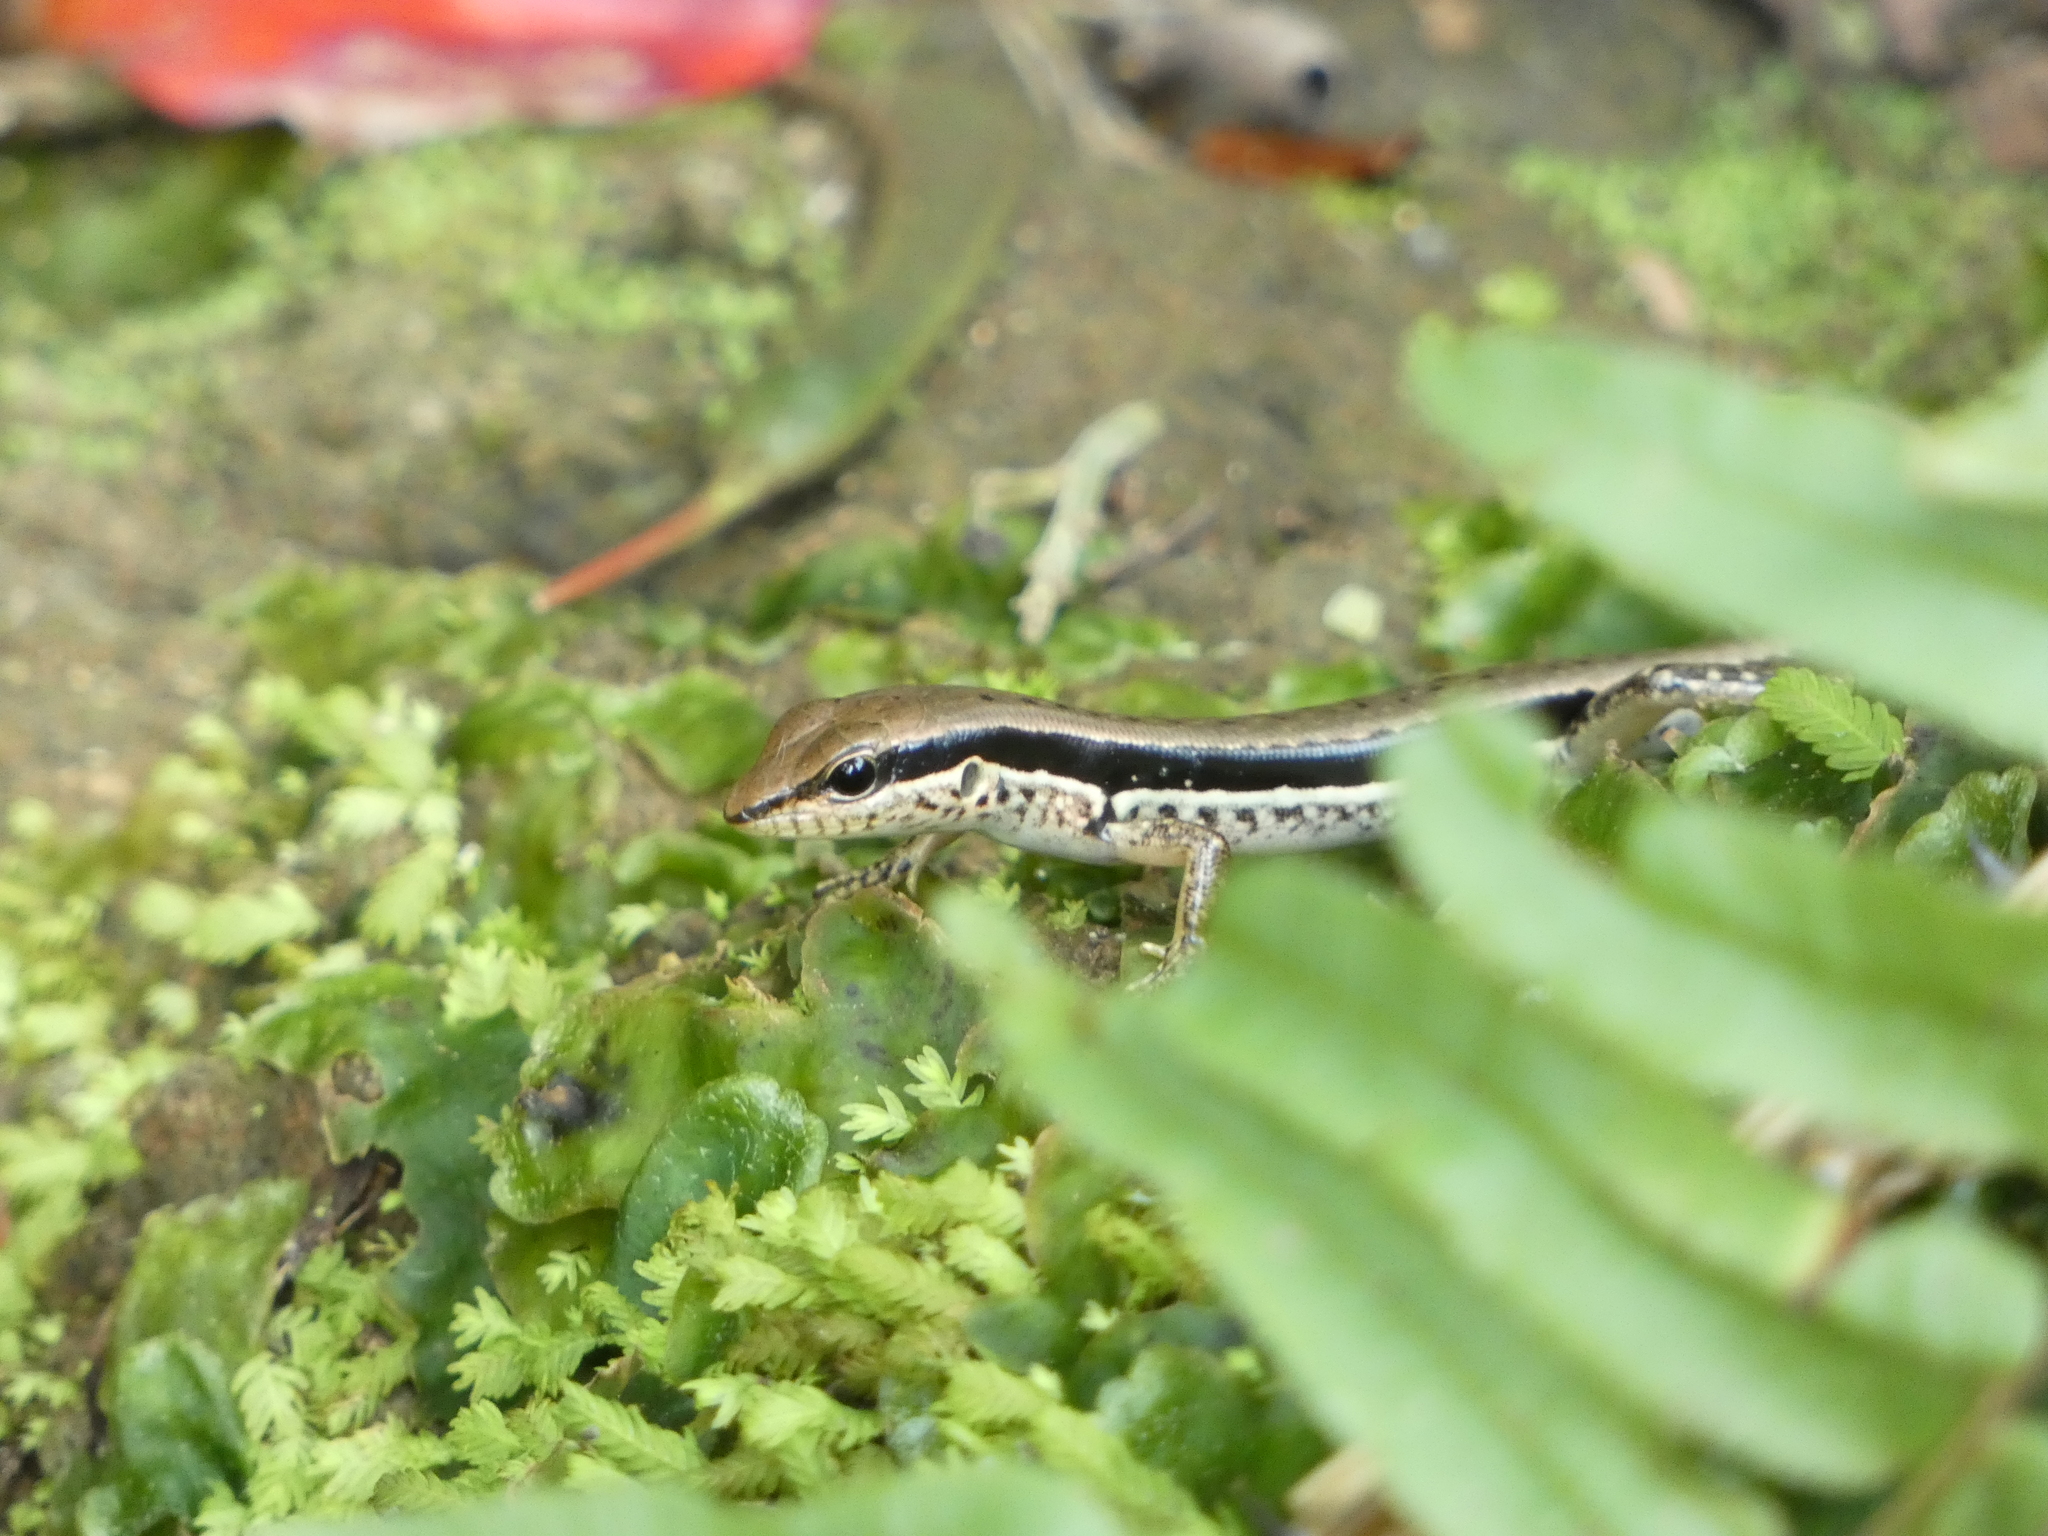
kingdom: Animalia
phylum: Chordata
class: Squamata
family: Scincidae
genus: Sphenomorphus
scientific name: Sphenomorphus maculatus
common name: Maculated forest skink
